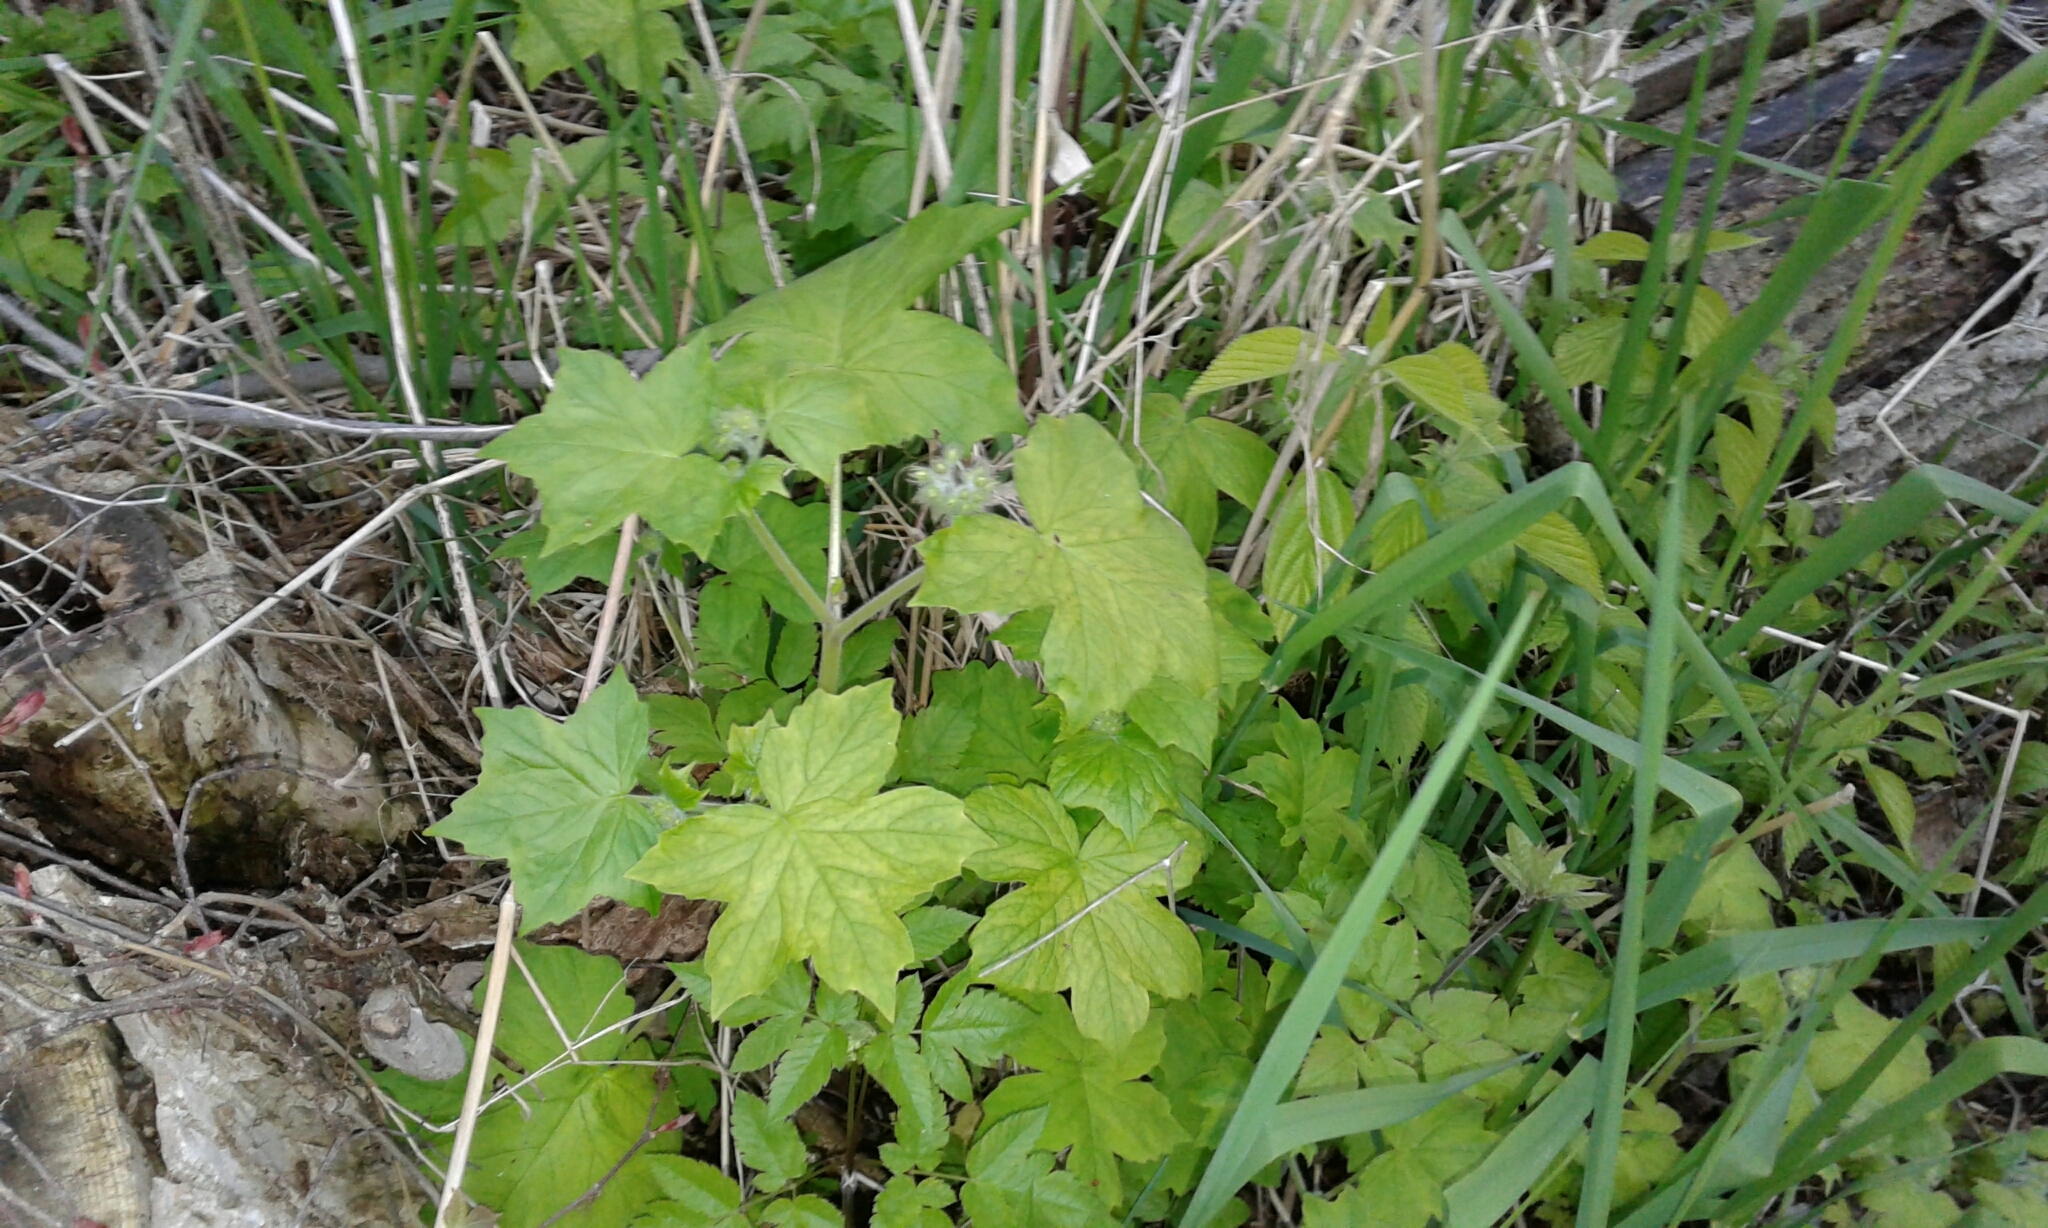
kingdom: Plantae
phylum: Tracheophyta
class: Magnoliopsida
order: Boraginales
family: Hydrophyllaceae
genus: Hydrophyllum
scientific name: Hydrophyllum appendiculatum
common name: Appendaged waterleaf
